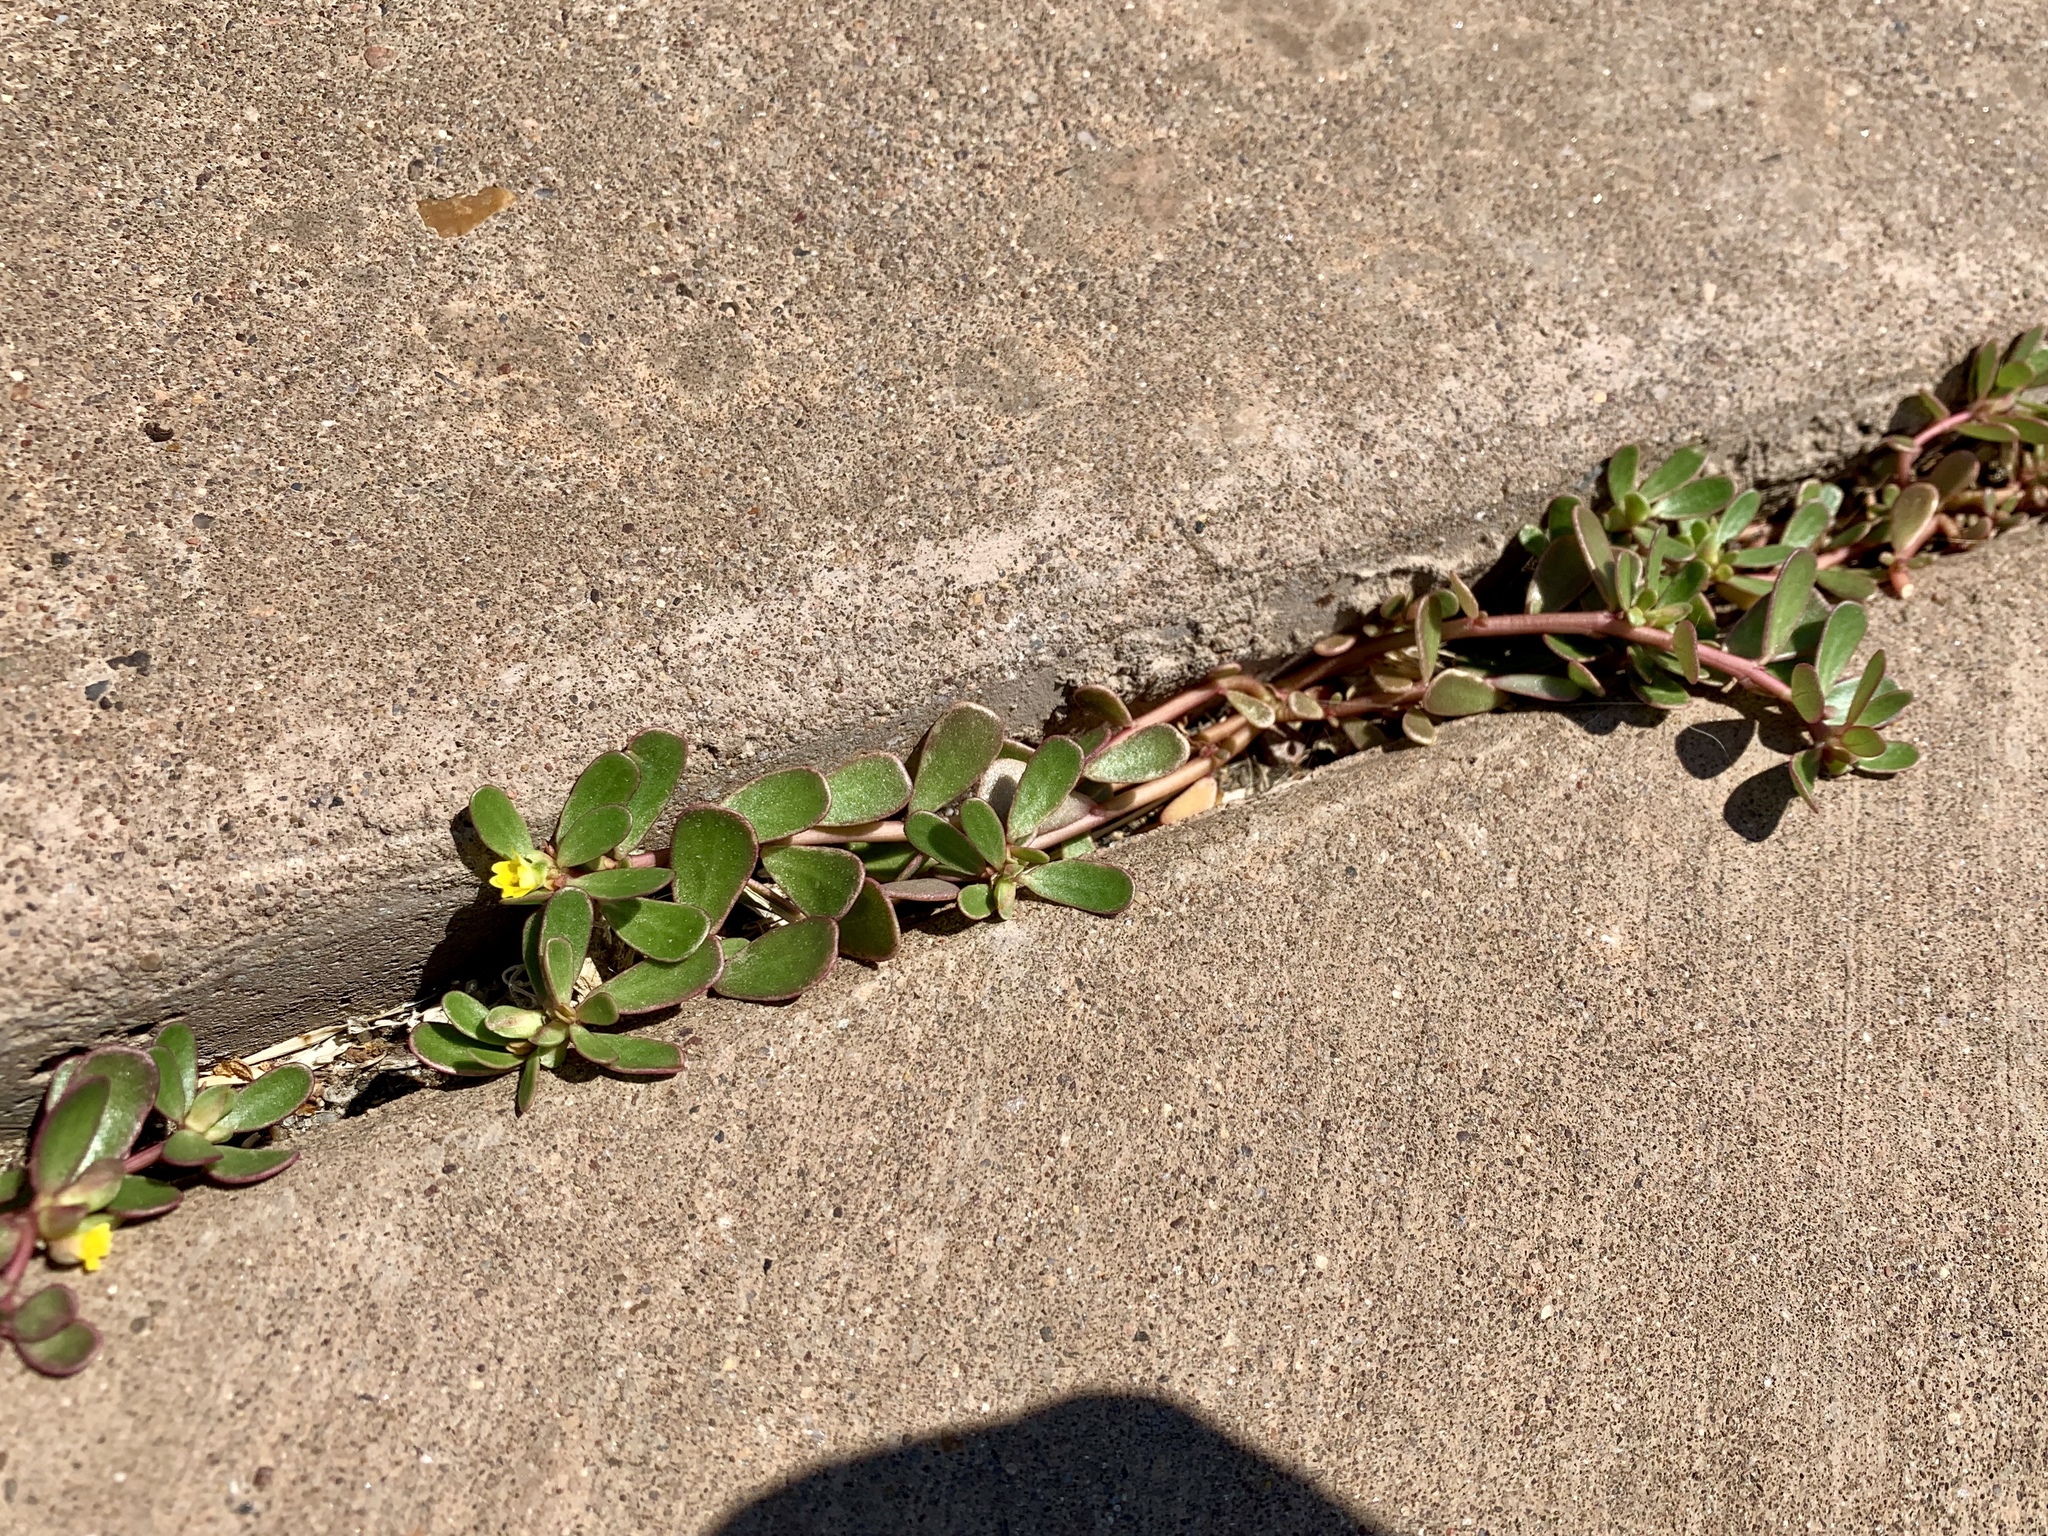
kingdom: Plantae
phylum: Tracheophyta
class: Magnoliopsida
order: Caryophyllales
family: Portulacaceae
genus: Portulaca
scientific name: Portulaca oleracea
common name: Common purslane
